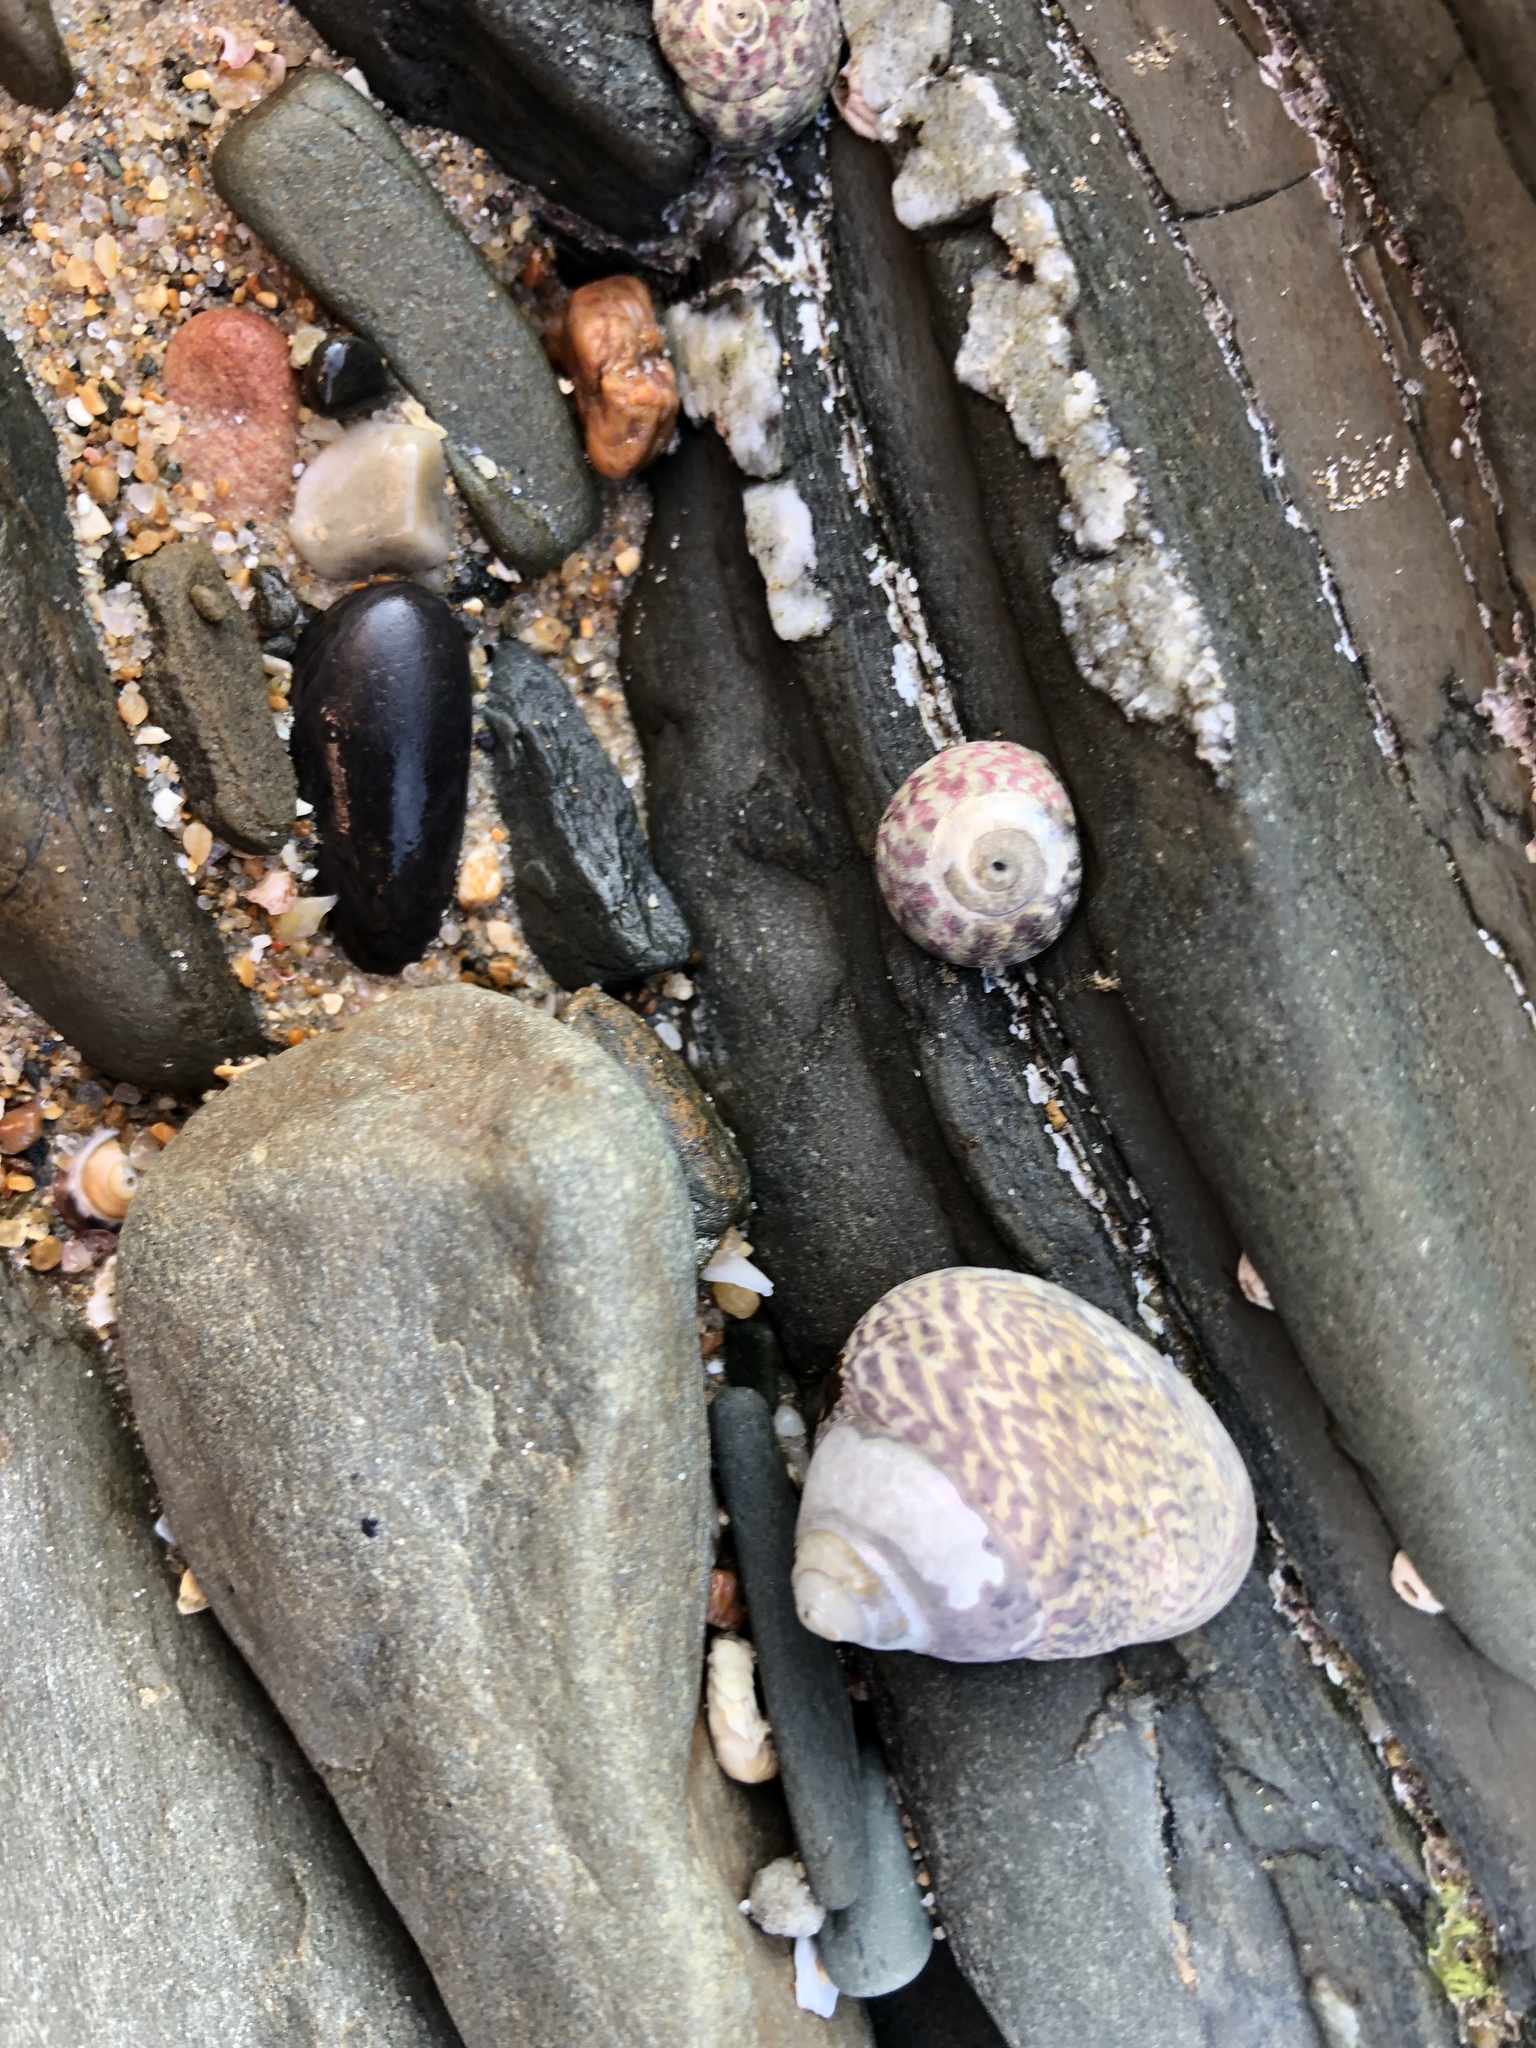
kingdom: Animalia
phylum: Mollusca
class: Gastropoda
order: Trochida
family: Trochidae
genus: Phorcus
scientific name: Phorcus lineatus
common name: Toothed top shell
